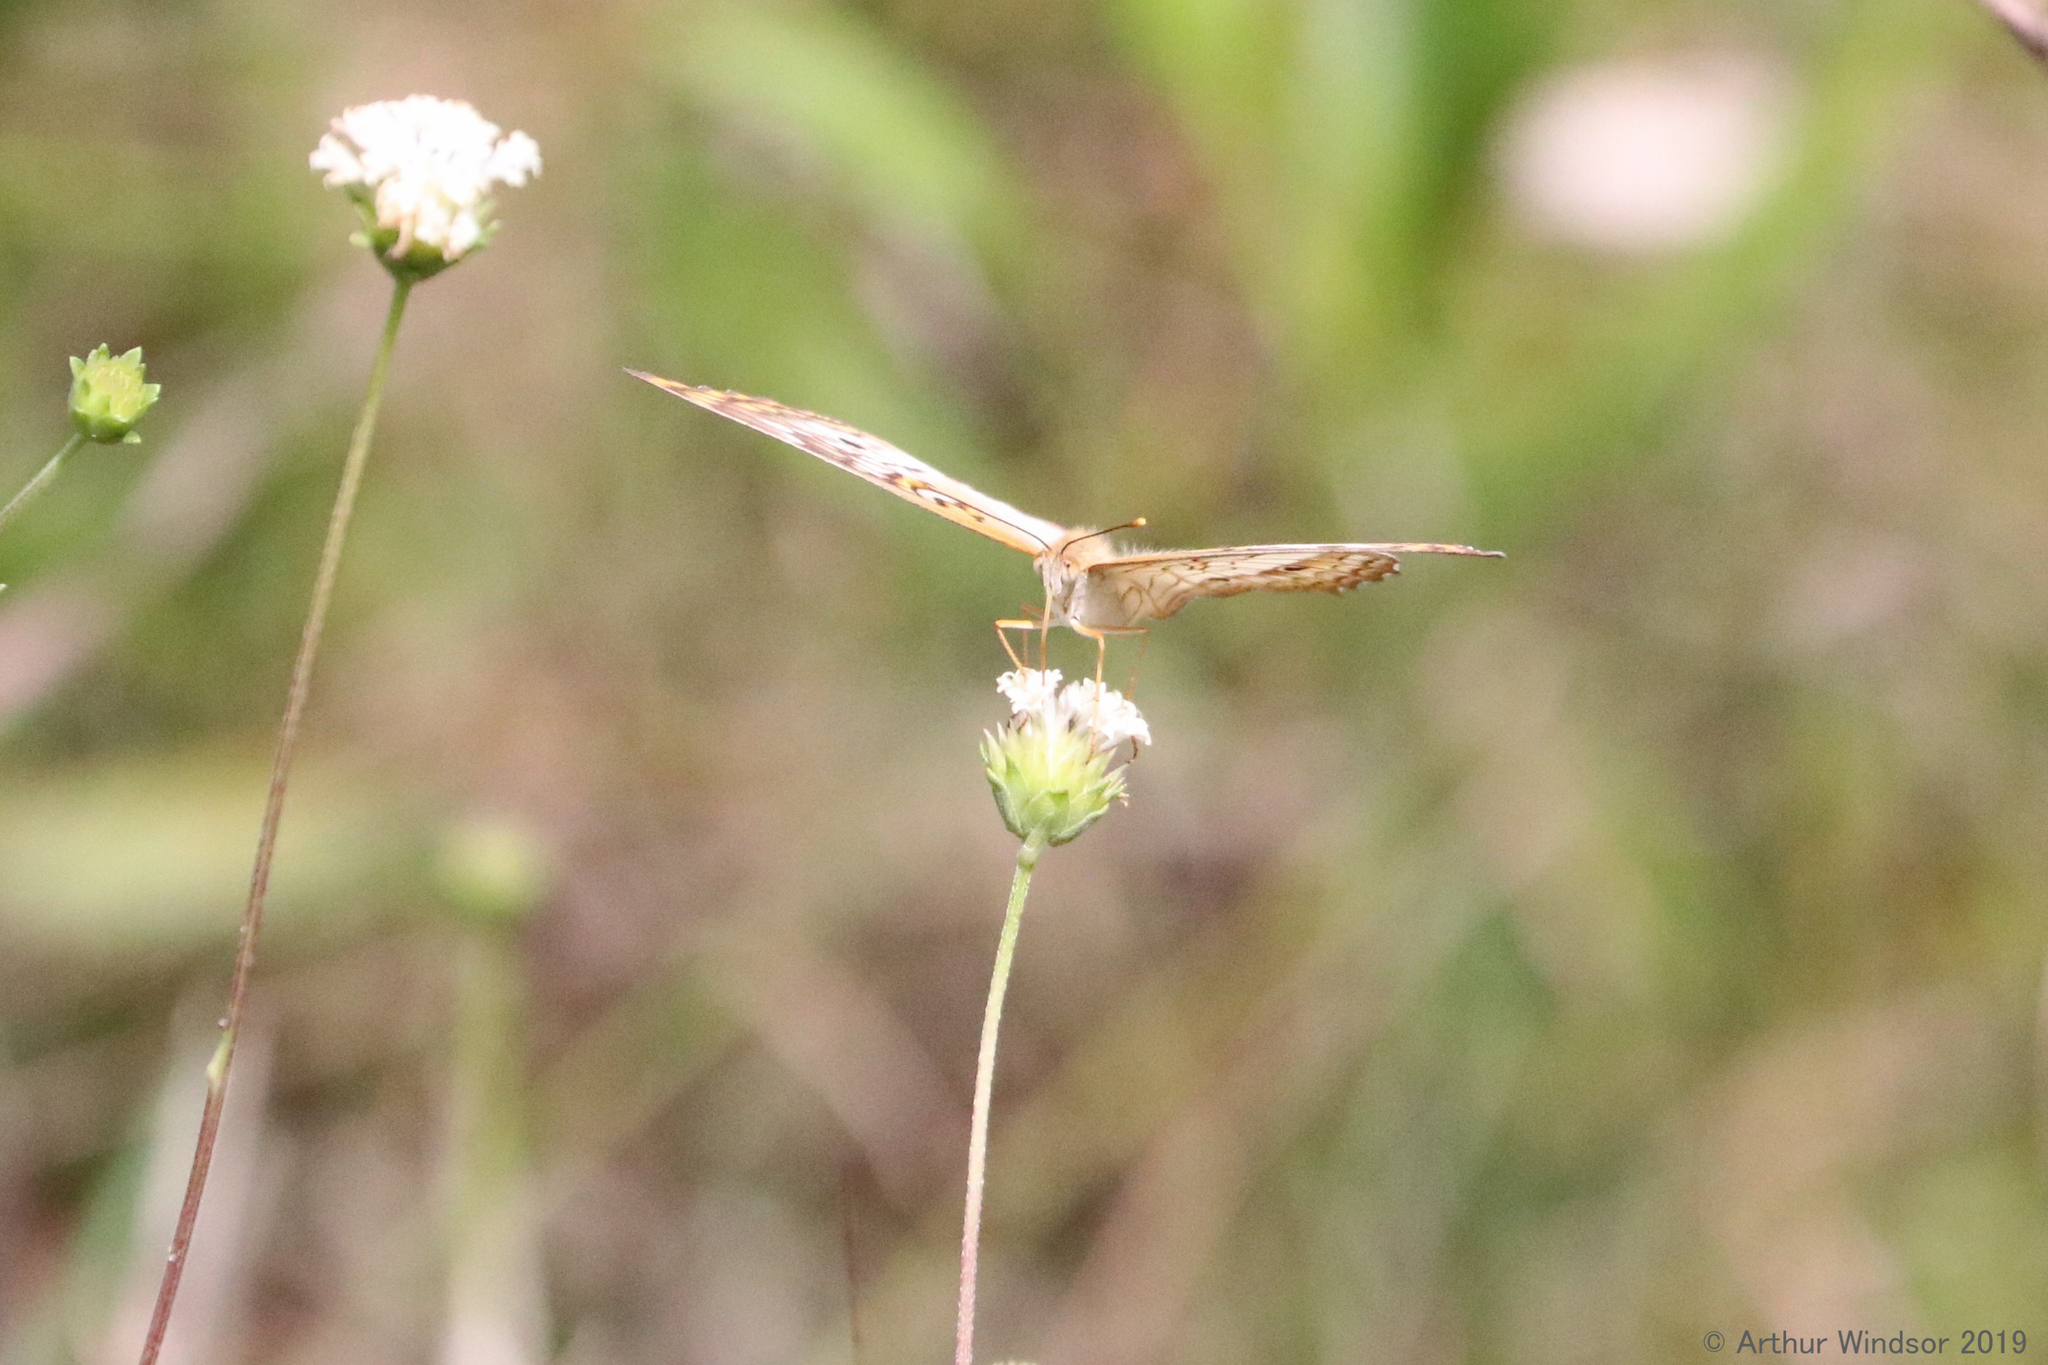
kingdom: Animalia
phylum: Arthropoda
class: Insecta
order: Lepidoptera
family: Nymphalidae
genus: Anartia
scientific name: Anartia jatrophae
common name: White peacock
